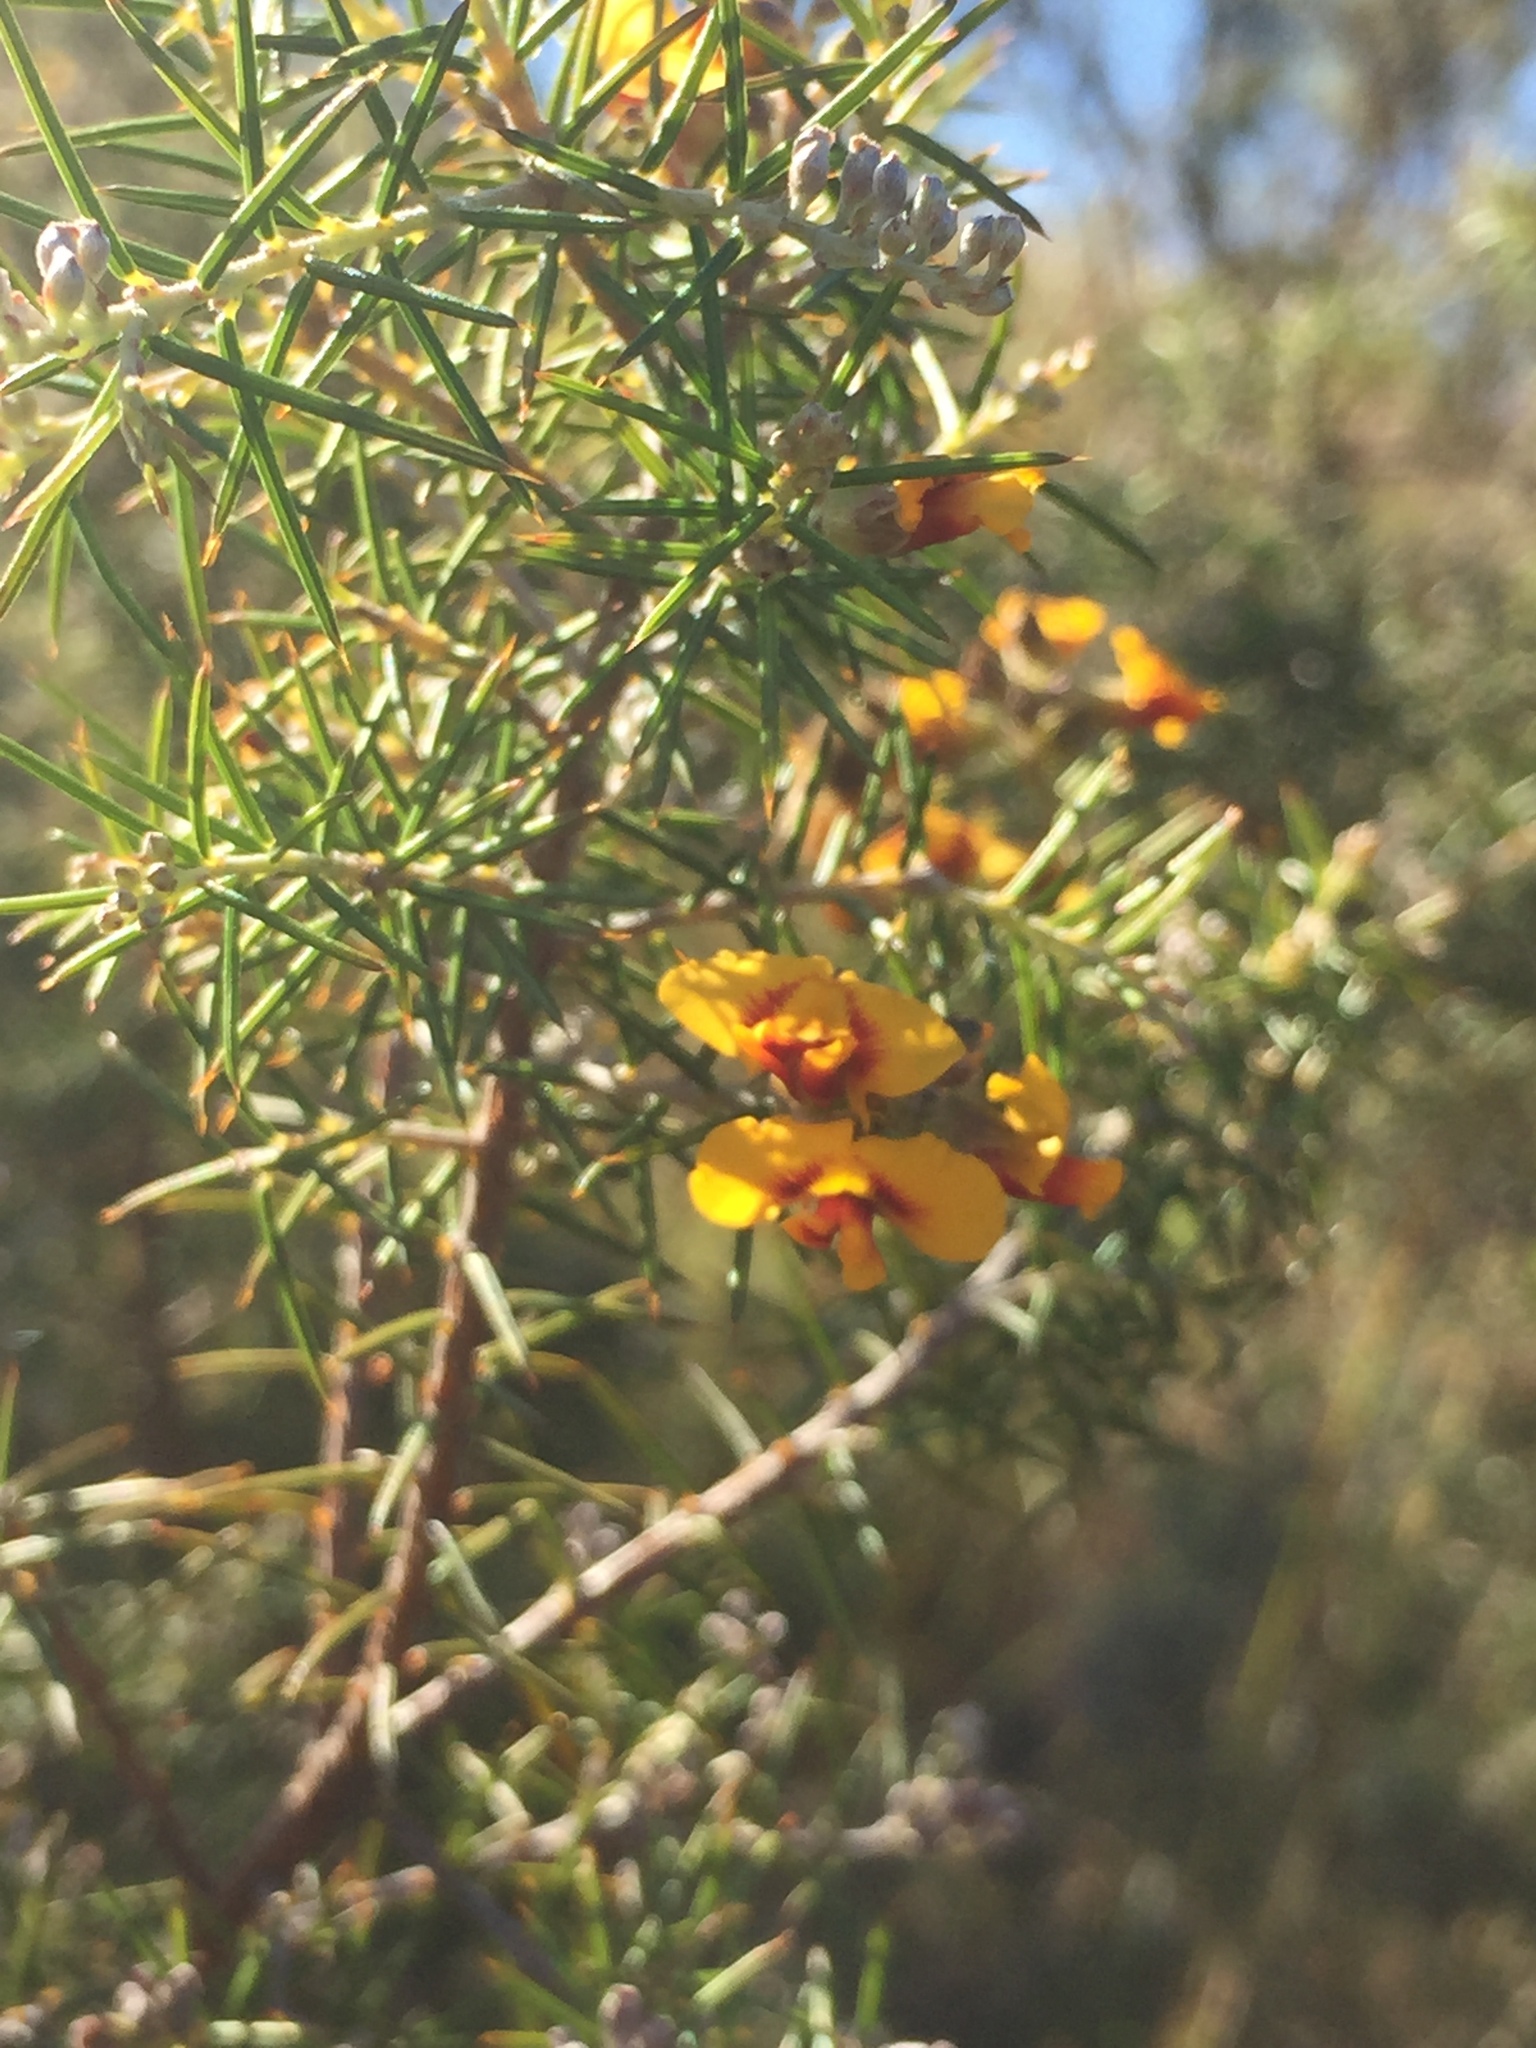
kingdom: Plantae
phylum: Tracheophyta
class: Magnoliopsida
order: Fabales
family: Fabaceae
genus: Dillwynia
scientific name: Dillwynia sieberi
